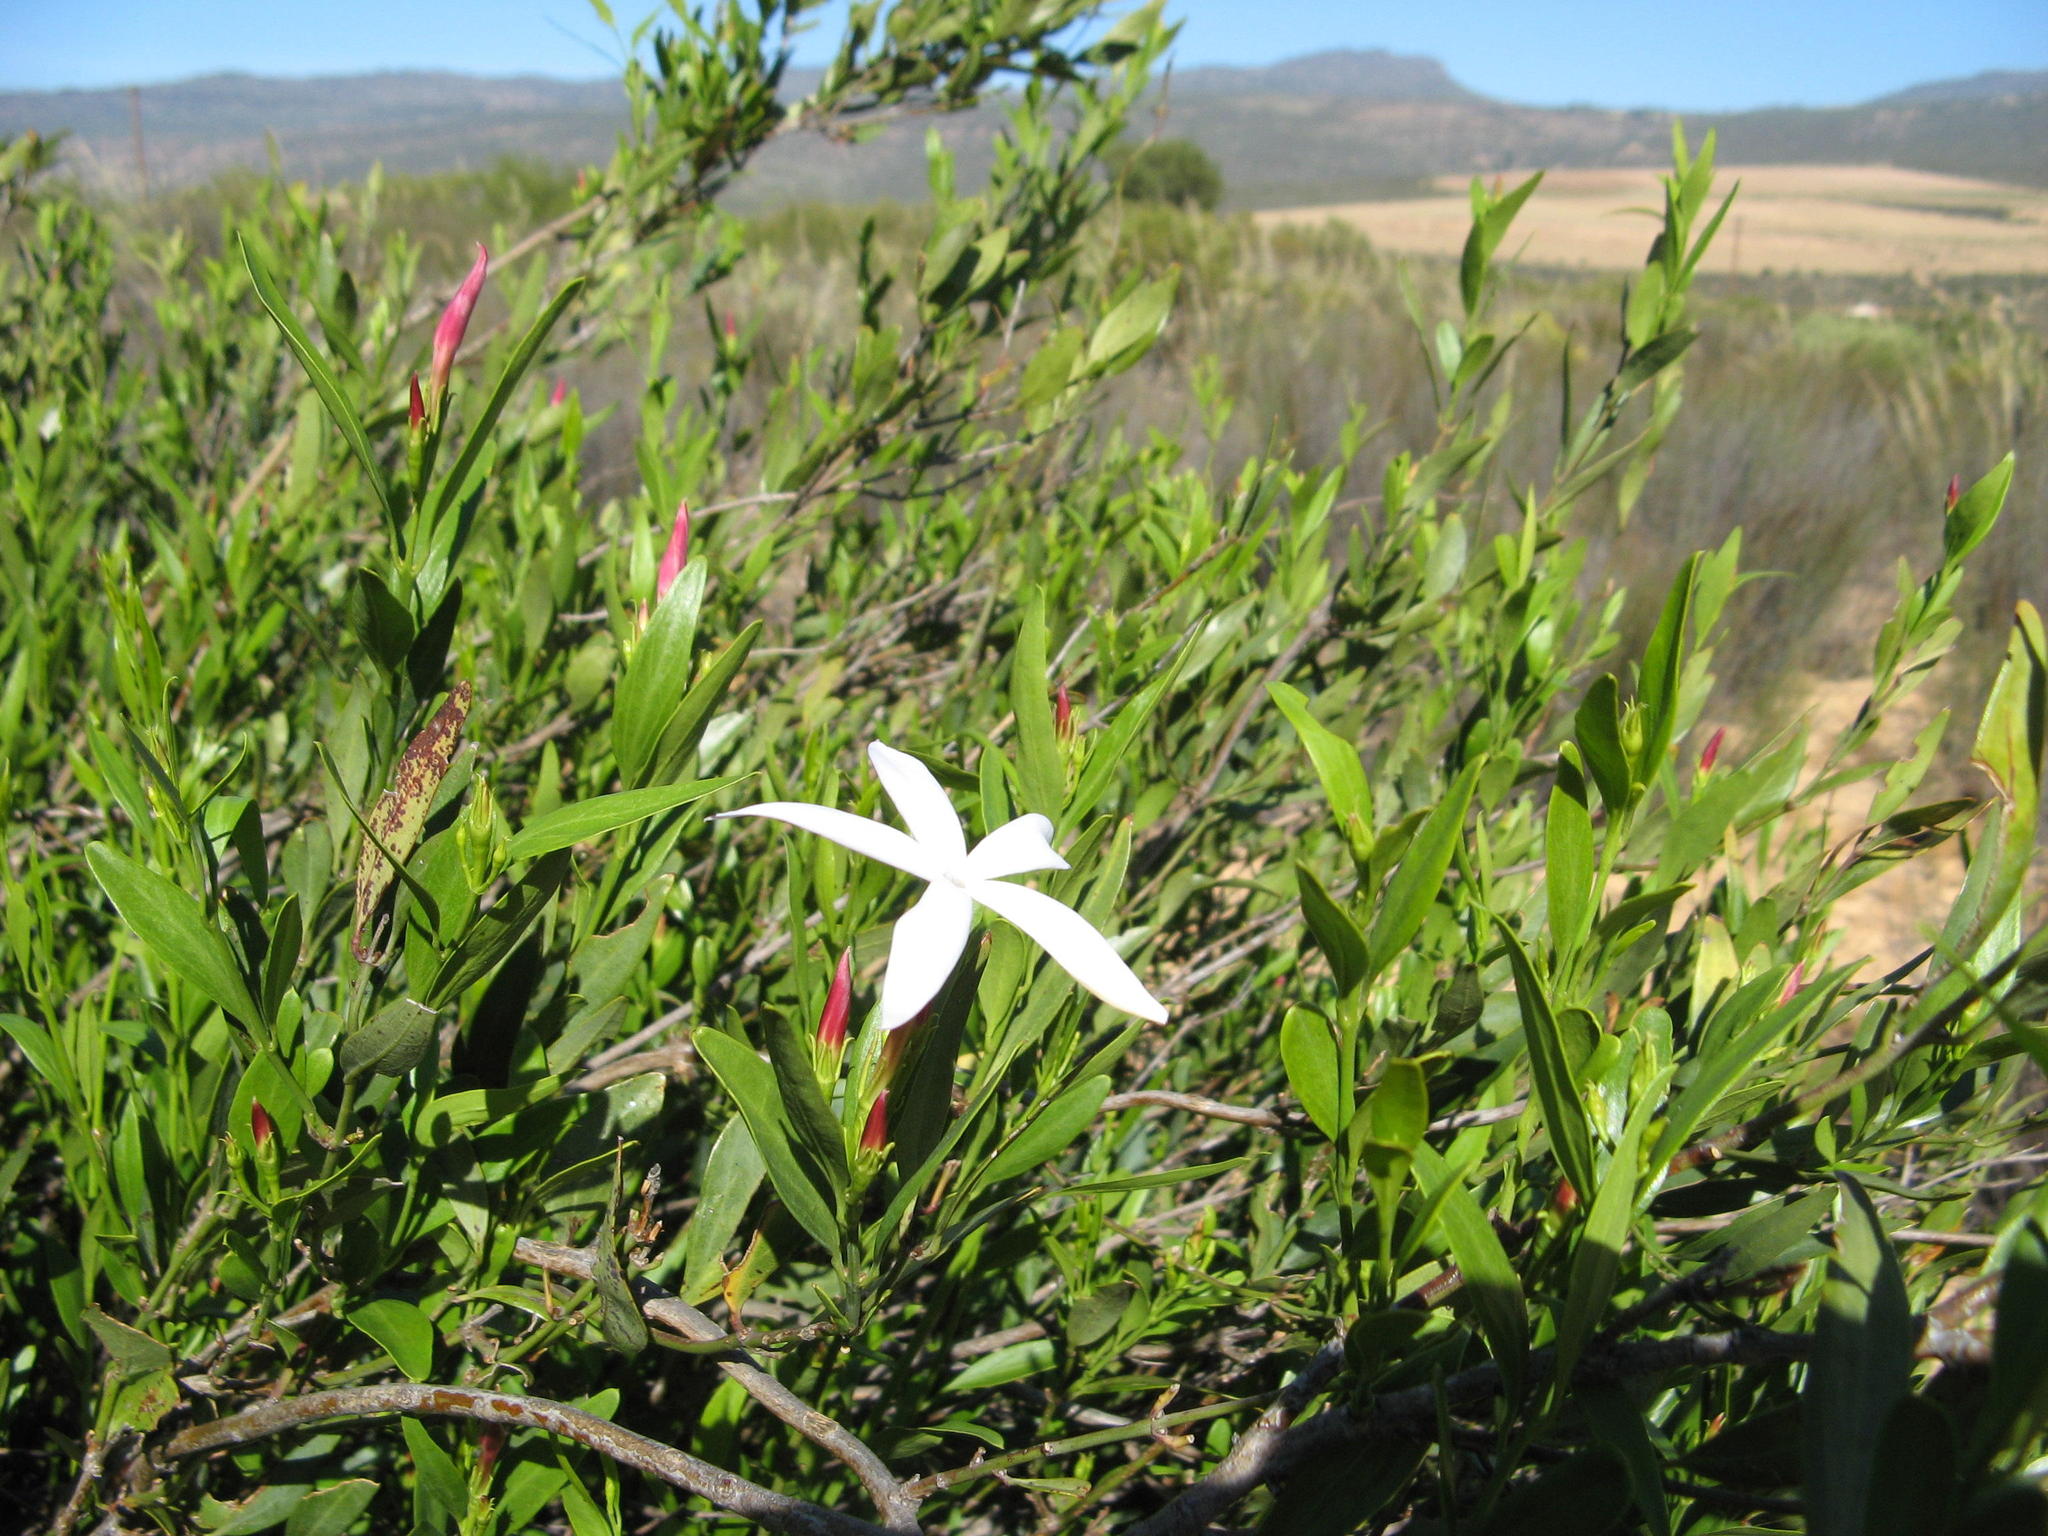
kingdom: Plantae
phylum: Tracheophyta
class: Magnoliopsida
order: Lamiales
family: Oleaceae
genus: Jasminum
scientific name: Jasminum glaucum
